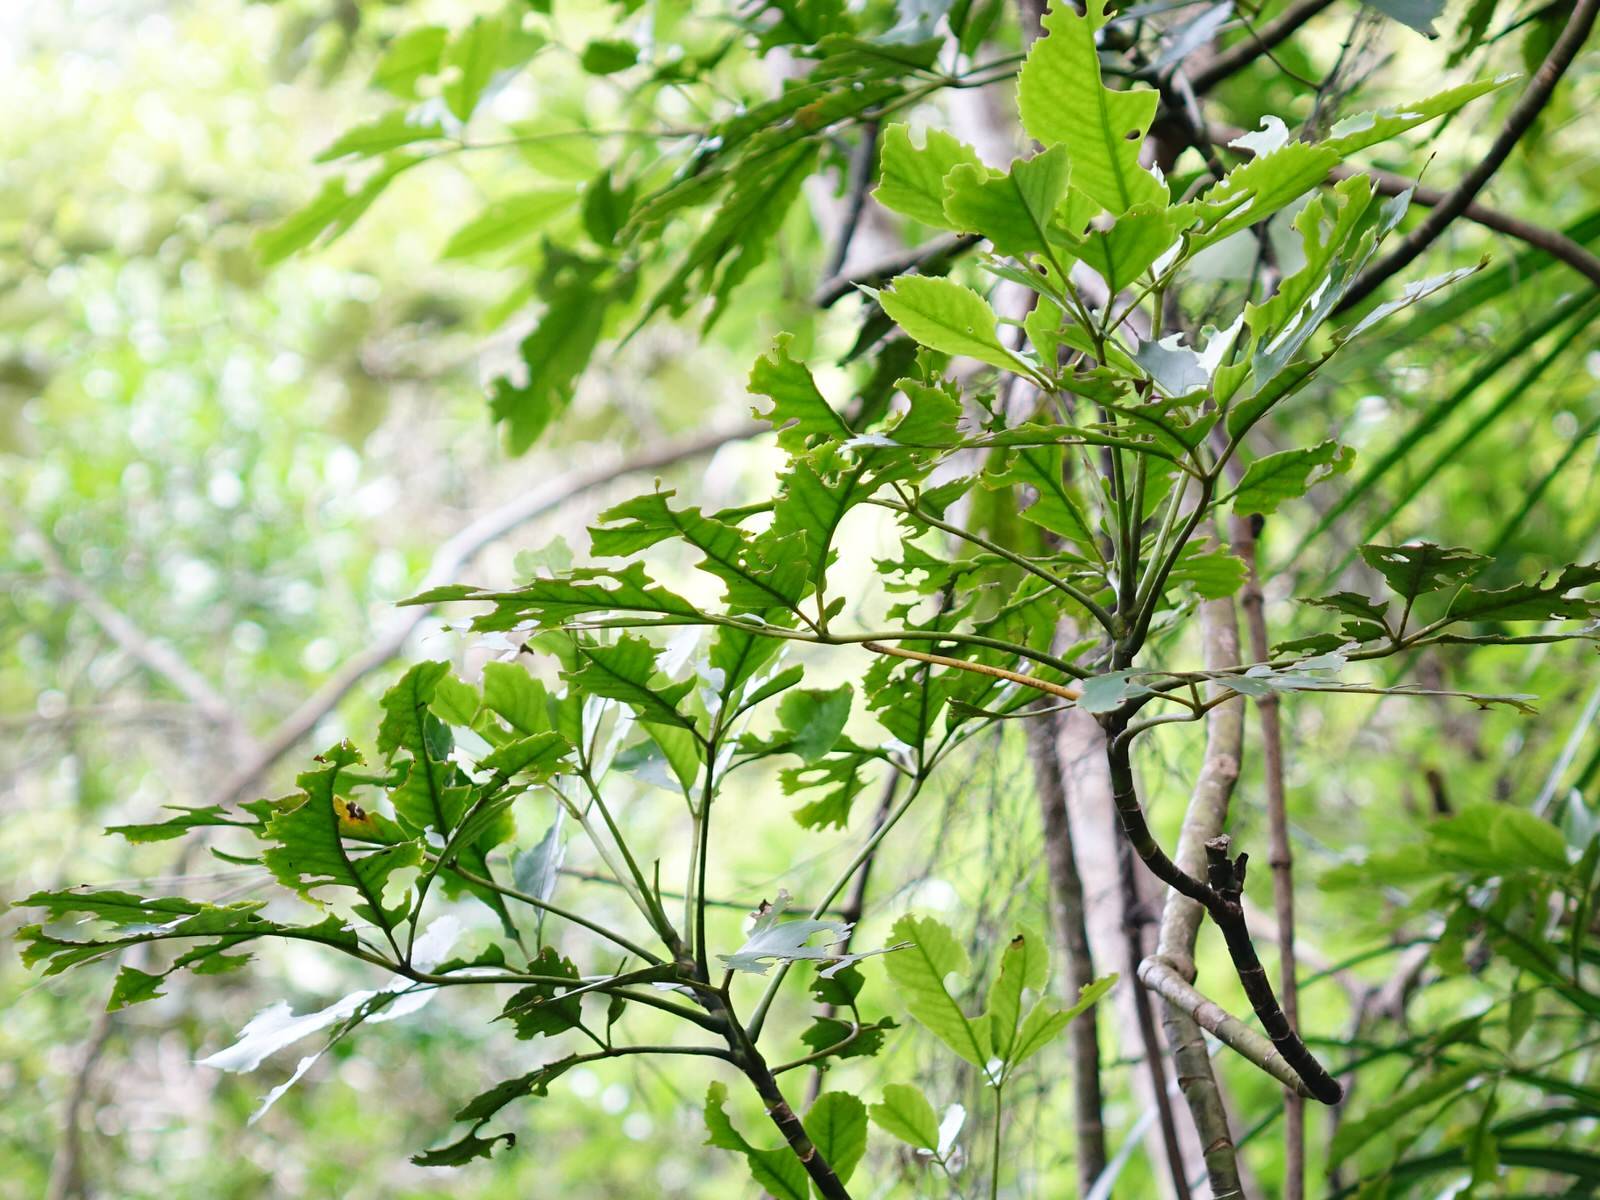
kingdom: Animalia
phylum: Chordata
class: Mammalia
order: Diprotodontia
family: Phalangeridae
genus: Trichosurus
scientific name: Trichosurus vulpecula
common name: Common brushtail
